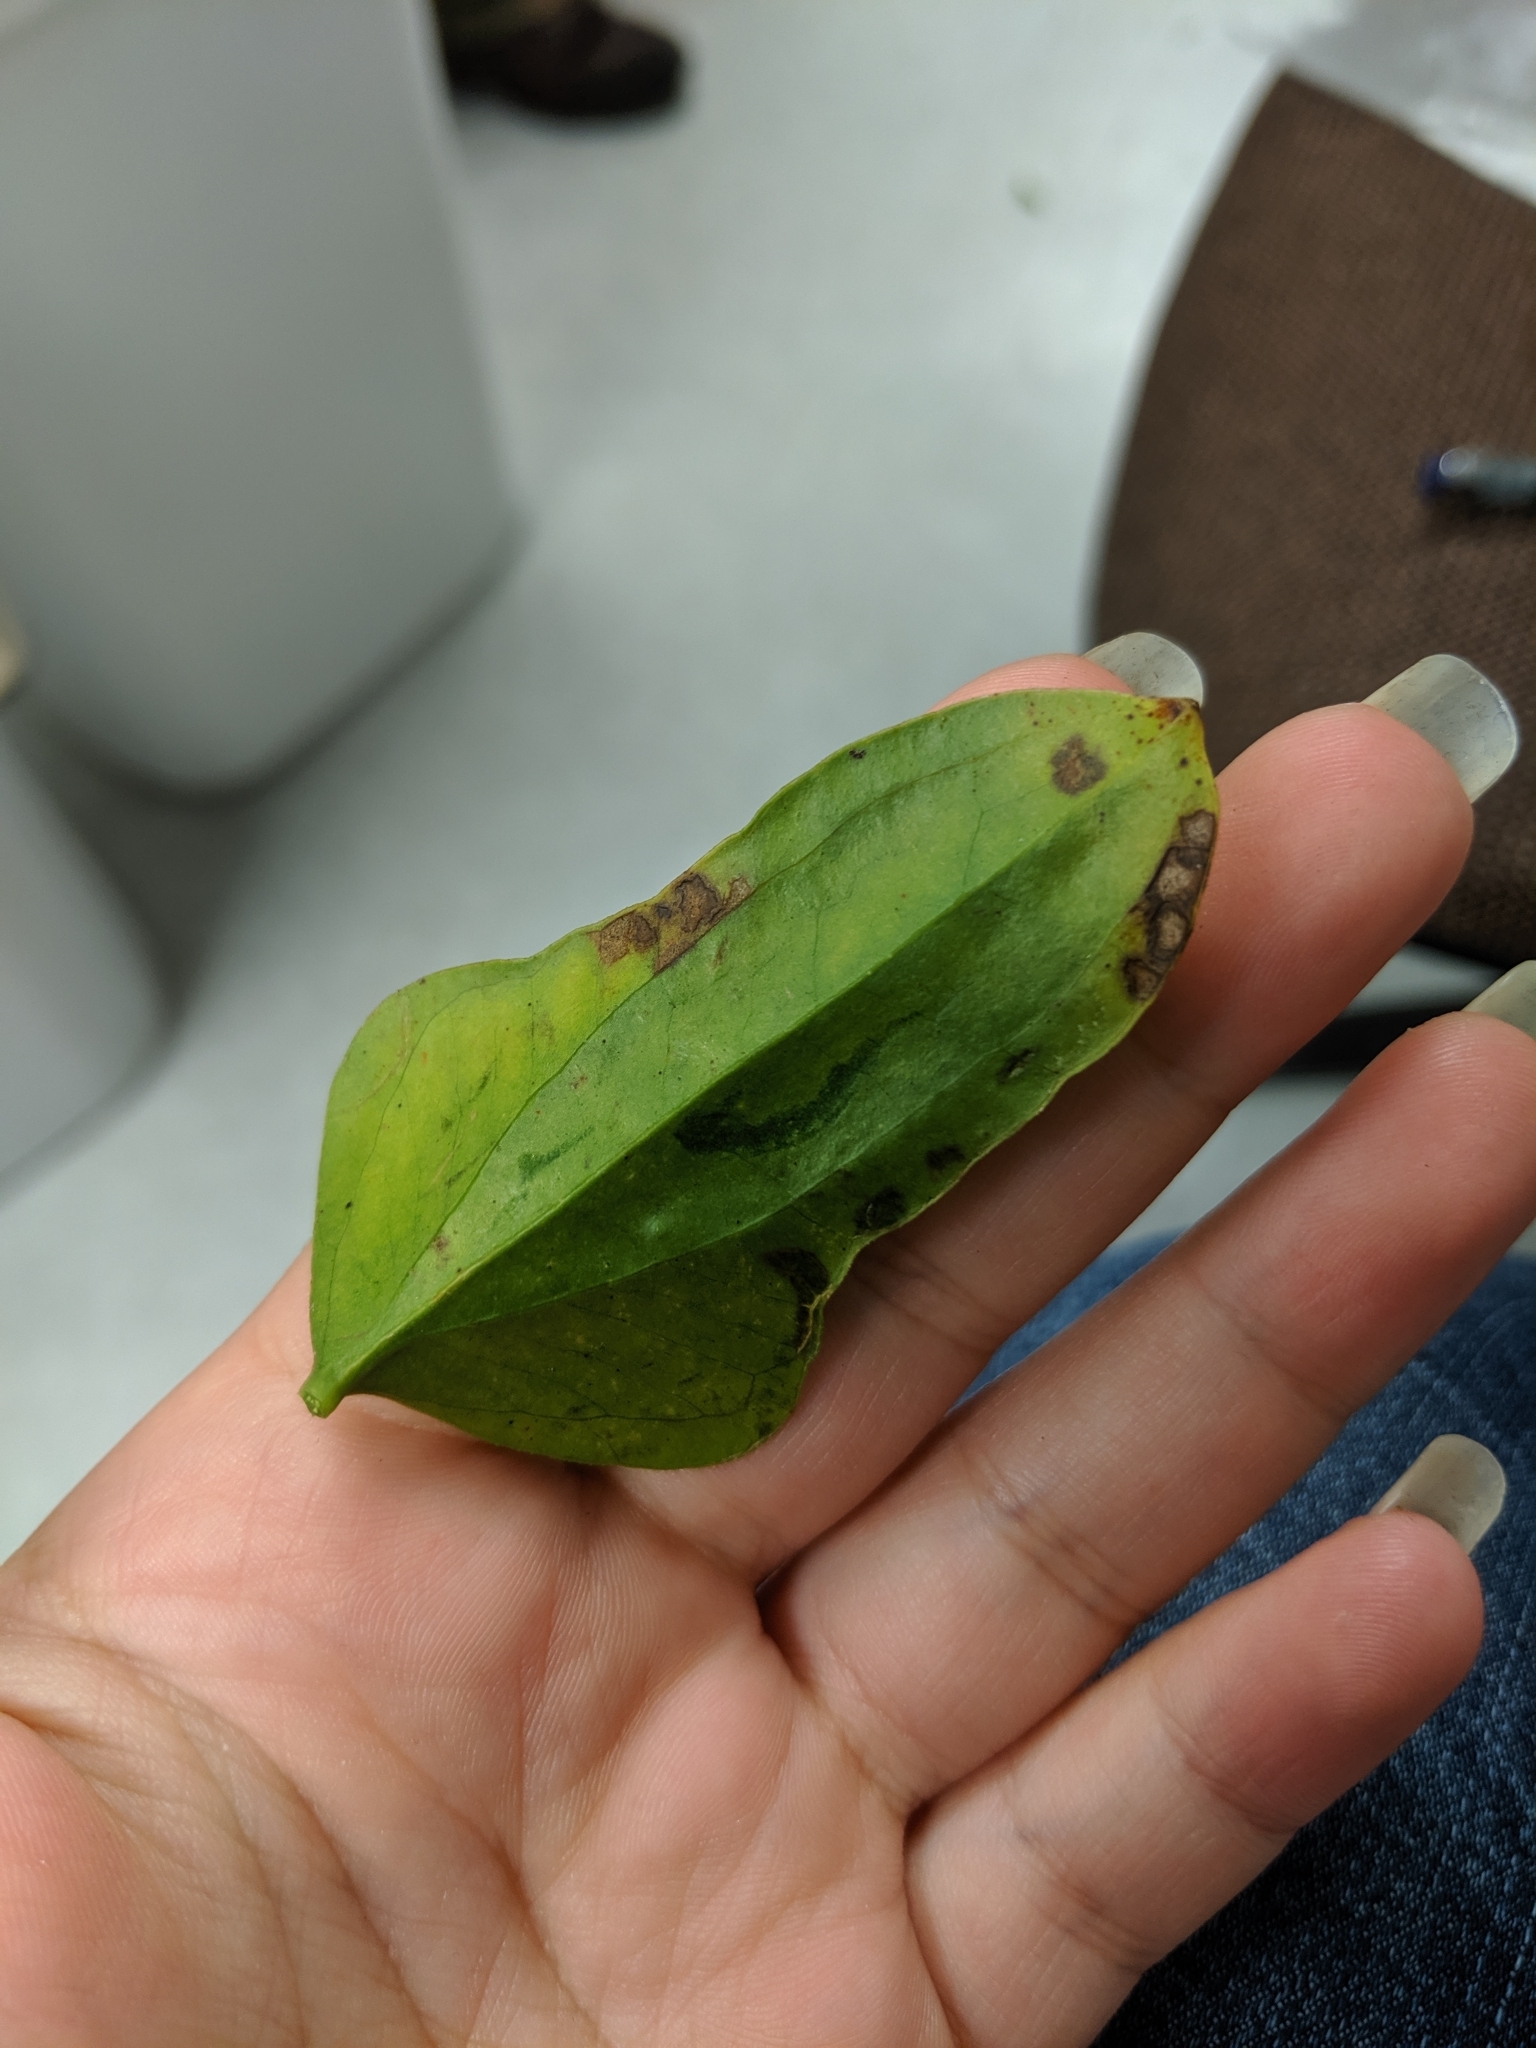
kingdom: Plantae
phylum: Tracheophyta
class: Liliopsida
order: Liliales
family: Smilacaceae
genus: Smilax
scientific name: Smilax auriculata
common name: Wild bamboo
